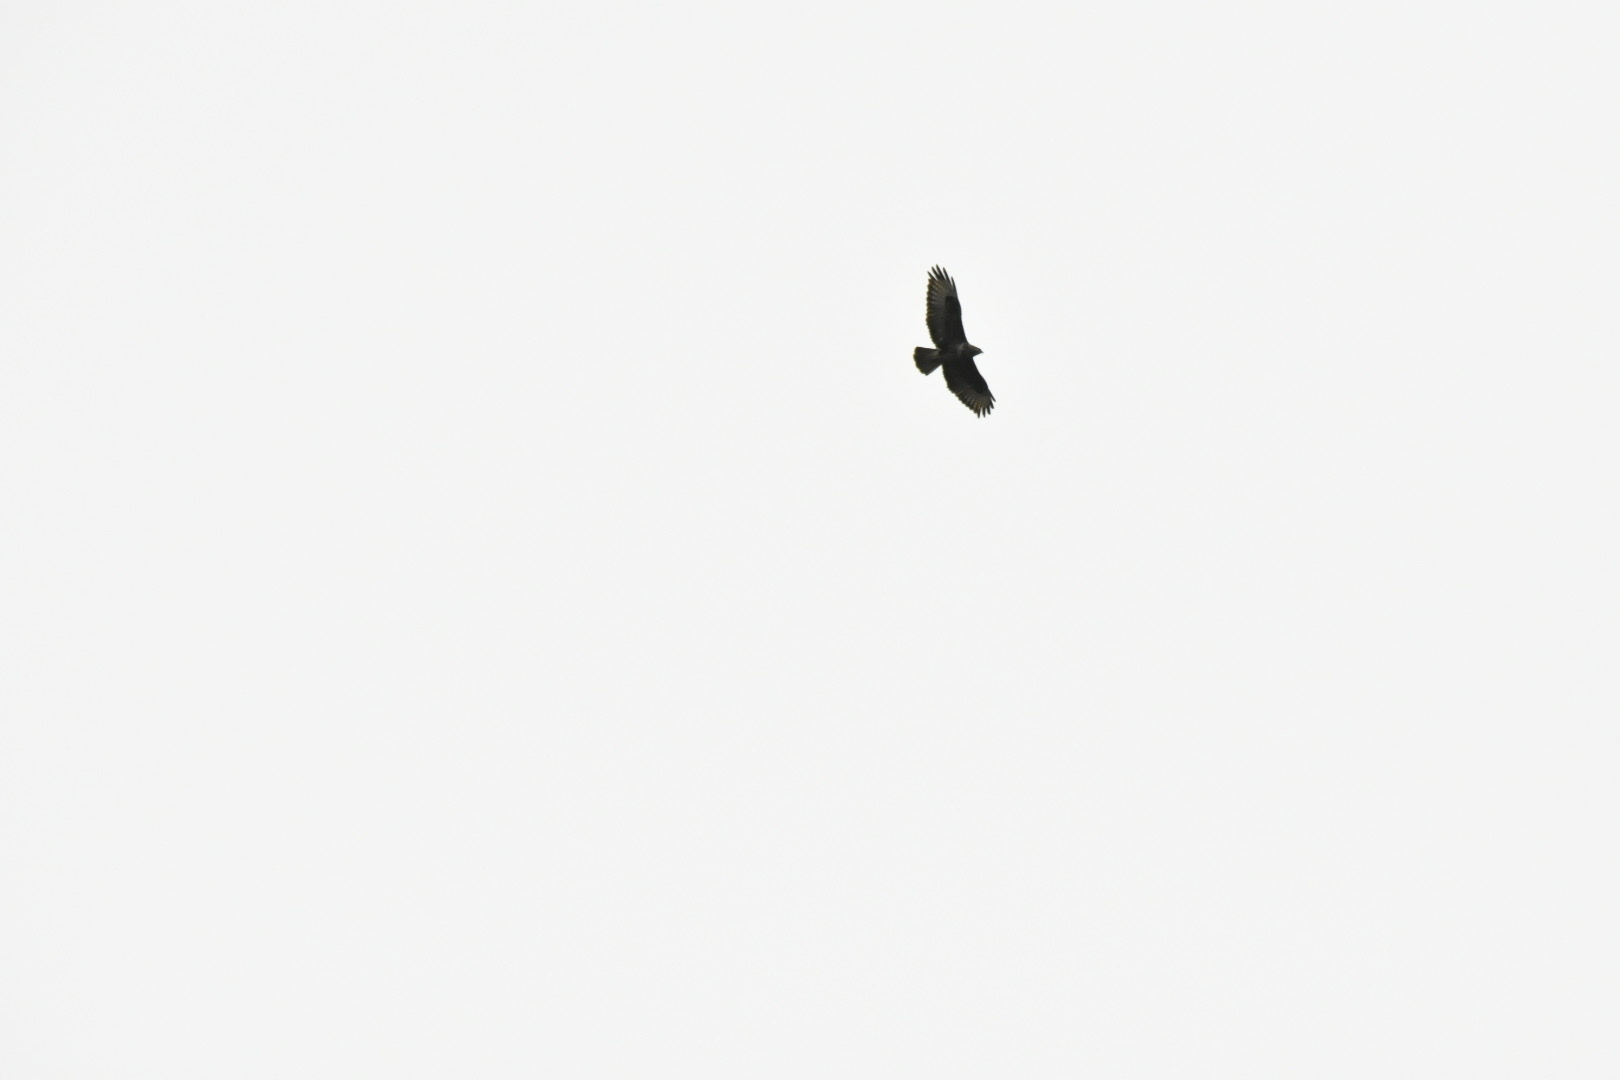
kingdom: Animalia
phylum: Chordata
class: Aves
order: Accipitriformes
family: Accipitridae
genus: Buteo
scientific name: Buteo buteo
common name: Common buzzard
